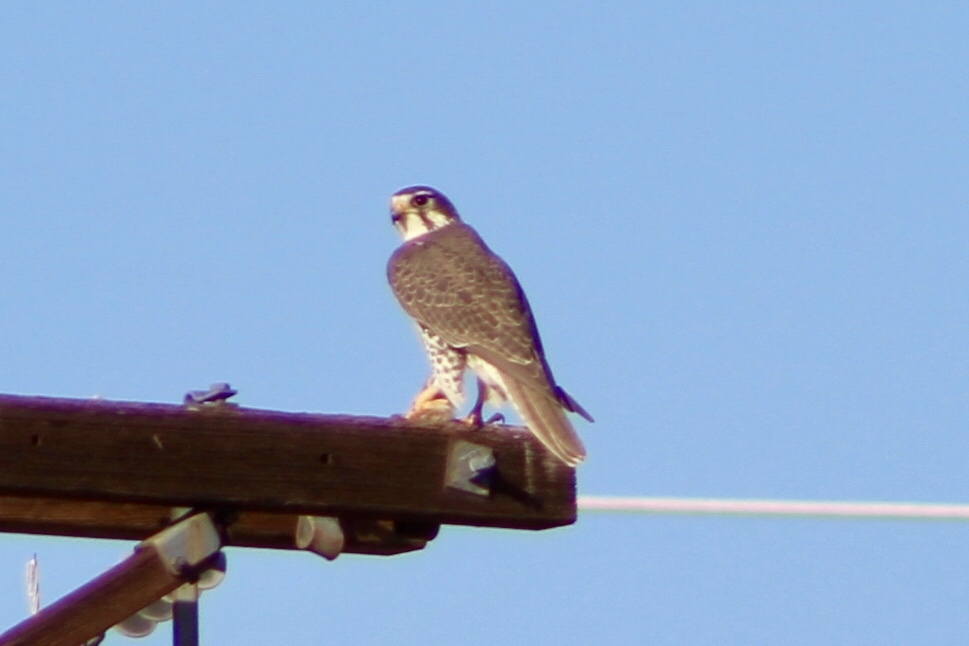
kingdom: Animalia
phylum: Chordata
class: Aves
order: Falconiformes
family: Falconidae
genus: Falco
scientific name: Falco mexicanus
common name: Prairie falcon
